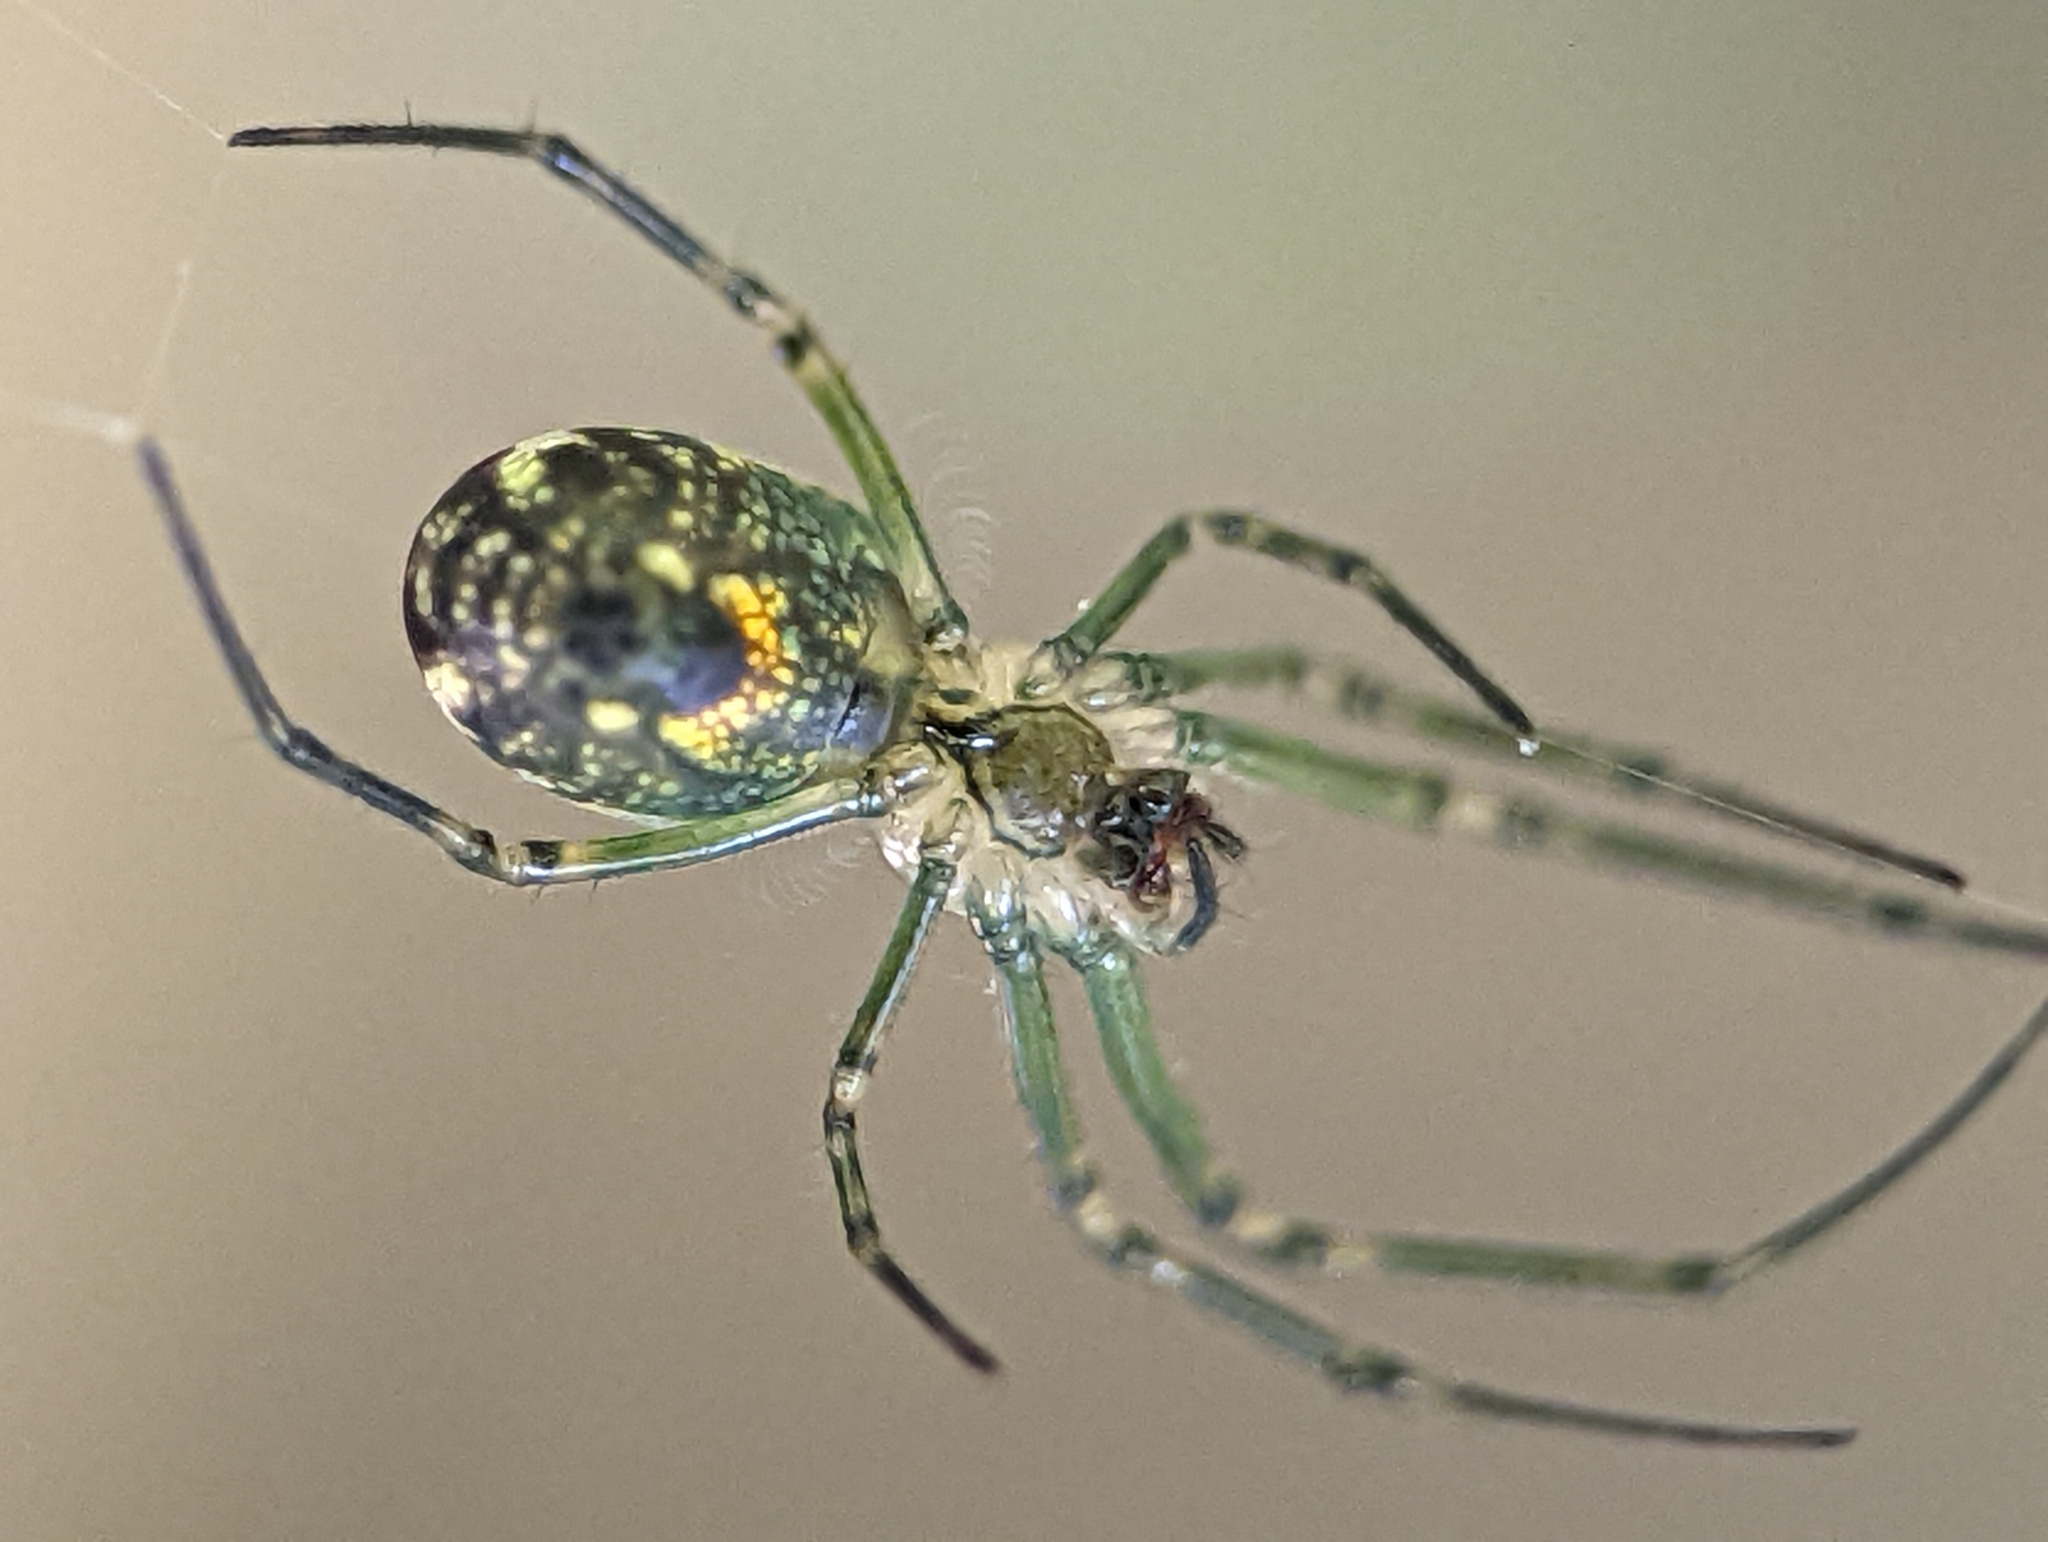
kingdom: Animalia
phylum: Arthropoda
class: Arachnida
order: Araneae
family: Tetragnathidae
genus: Leucauge
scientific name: Leucauge venusta
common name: Longjawed orb weavers
